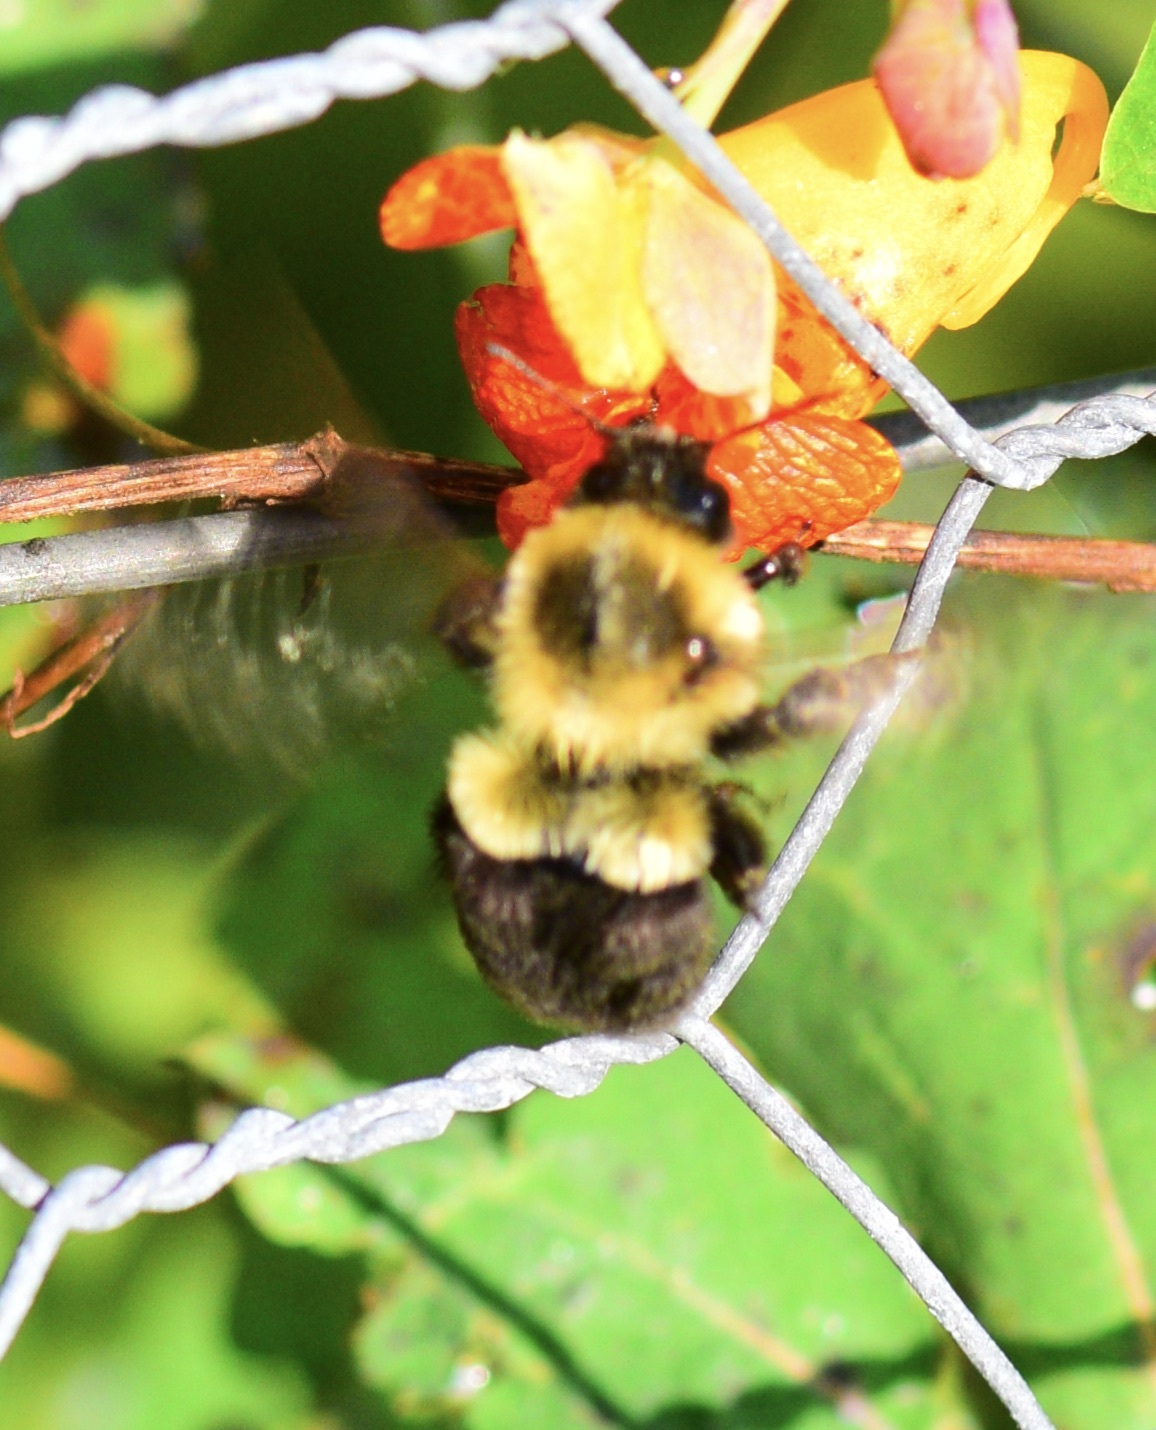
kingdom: Animalia
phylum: Arthropoda
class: Insecta
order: Hymenoptera
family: Apidae
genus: Bombus
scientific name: Bombus impatiens
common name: Common eastern bumble bee
